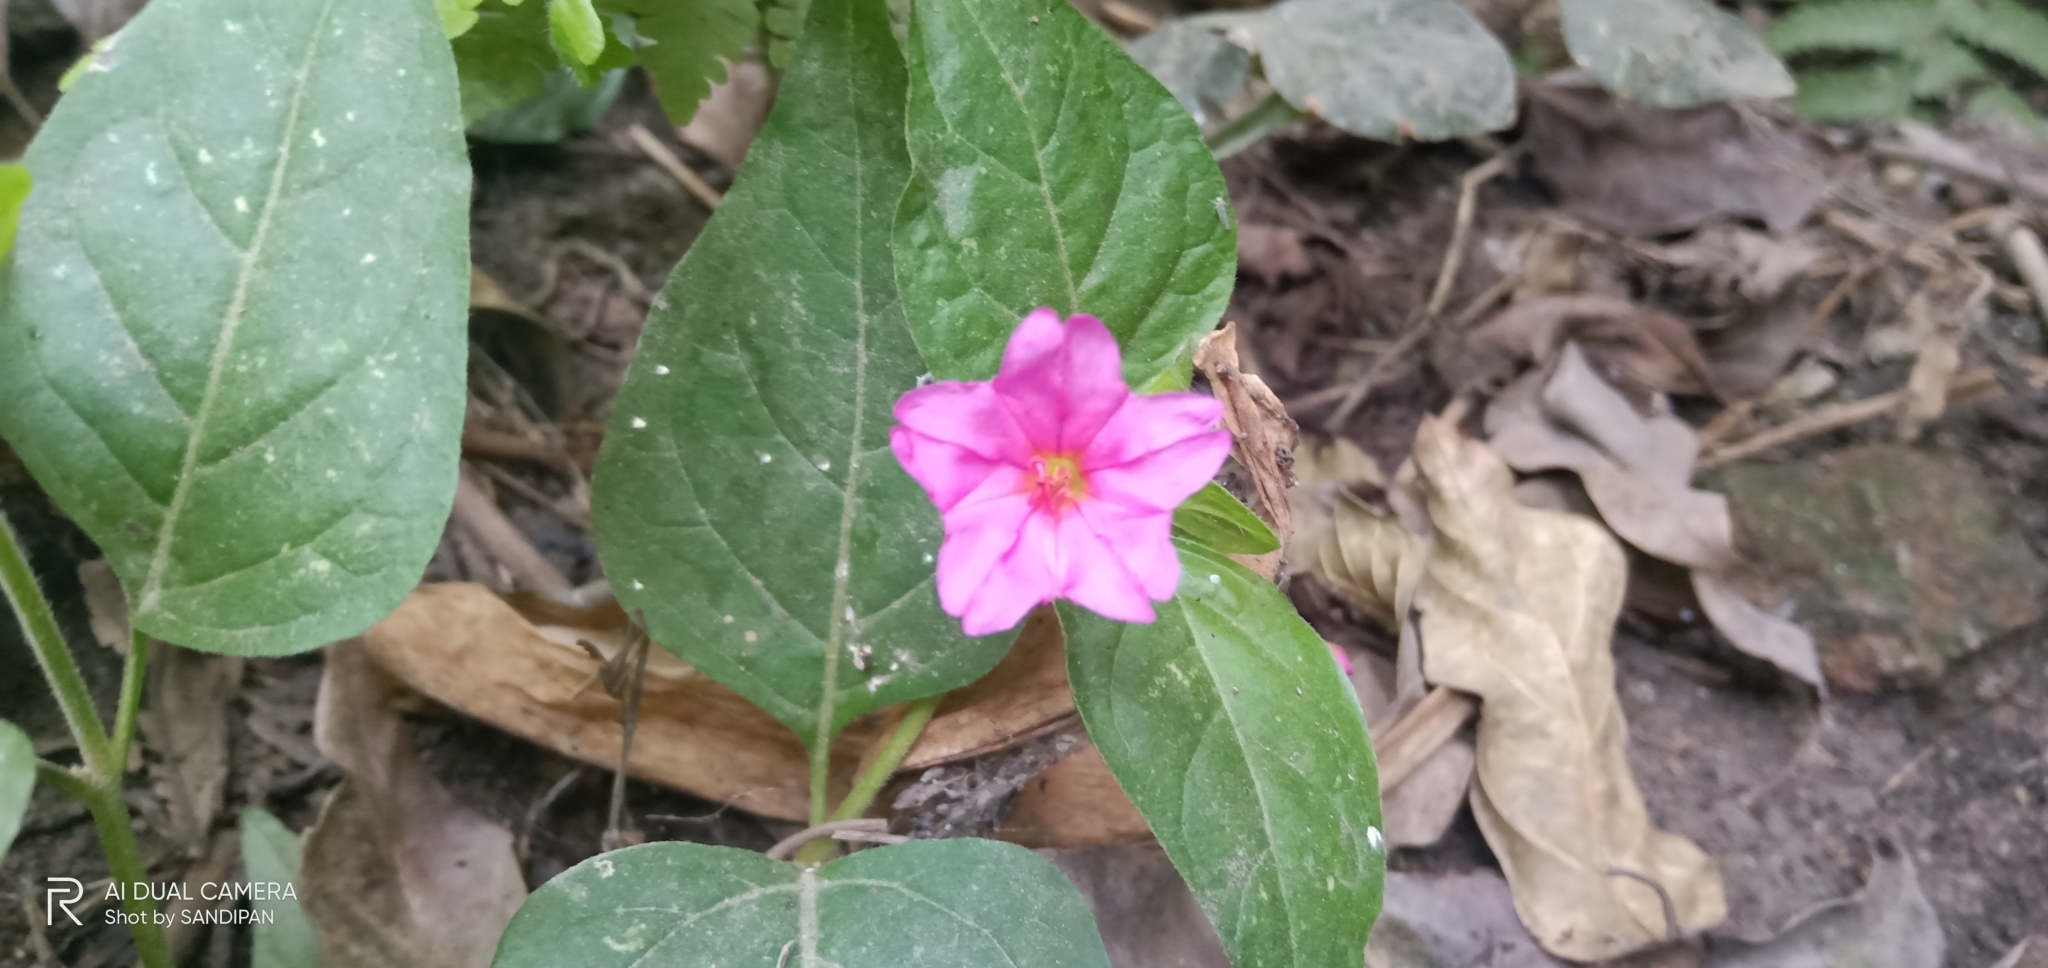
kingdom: Plantae
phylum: Tracheophyta
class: Magnoliopsida
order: Caryophyllales
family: Nyctaginaceae
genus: Mirabilis
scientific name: Mirabilis jalapa
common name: Marvel-of-peru
